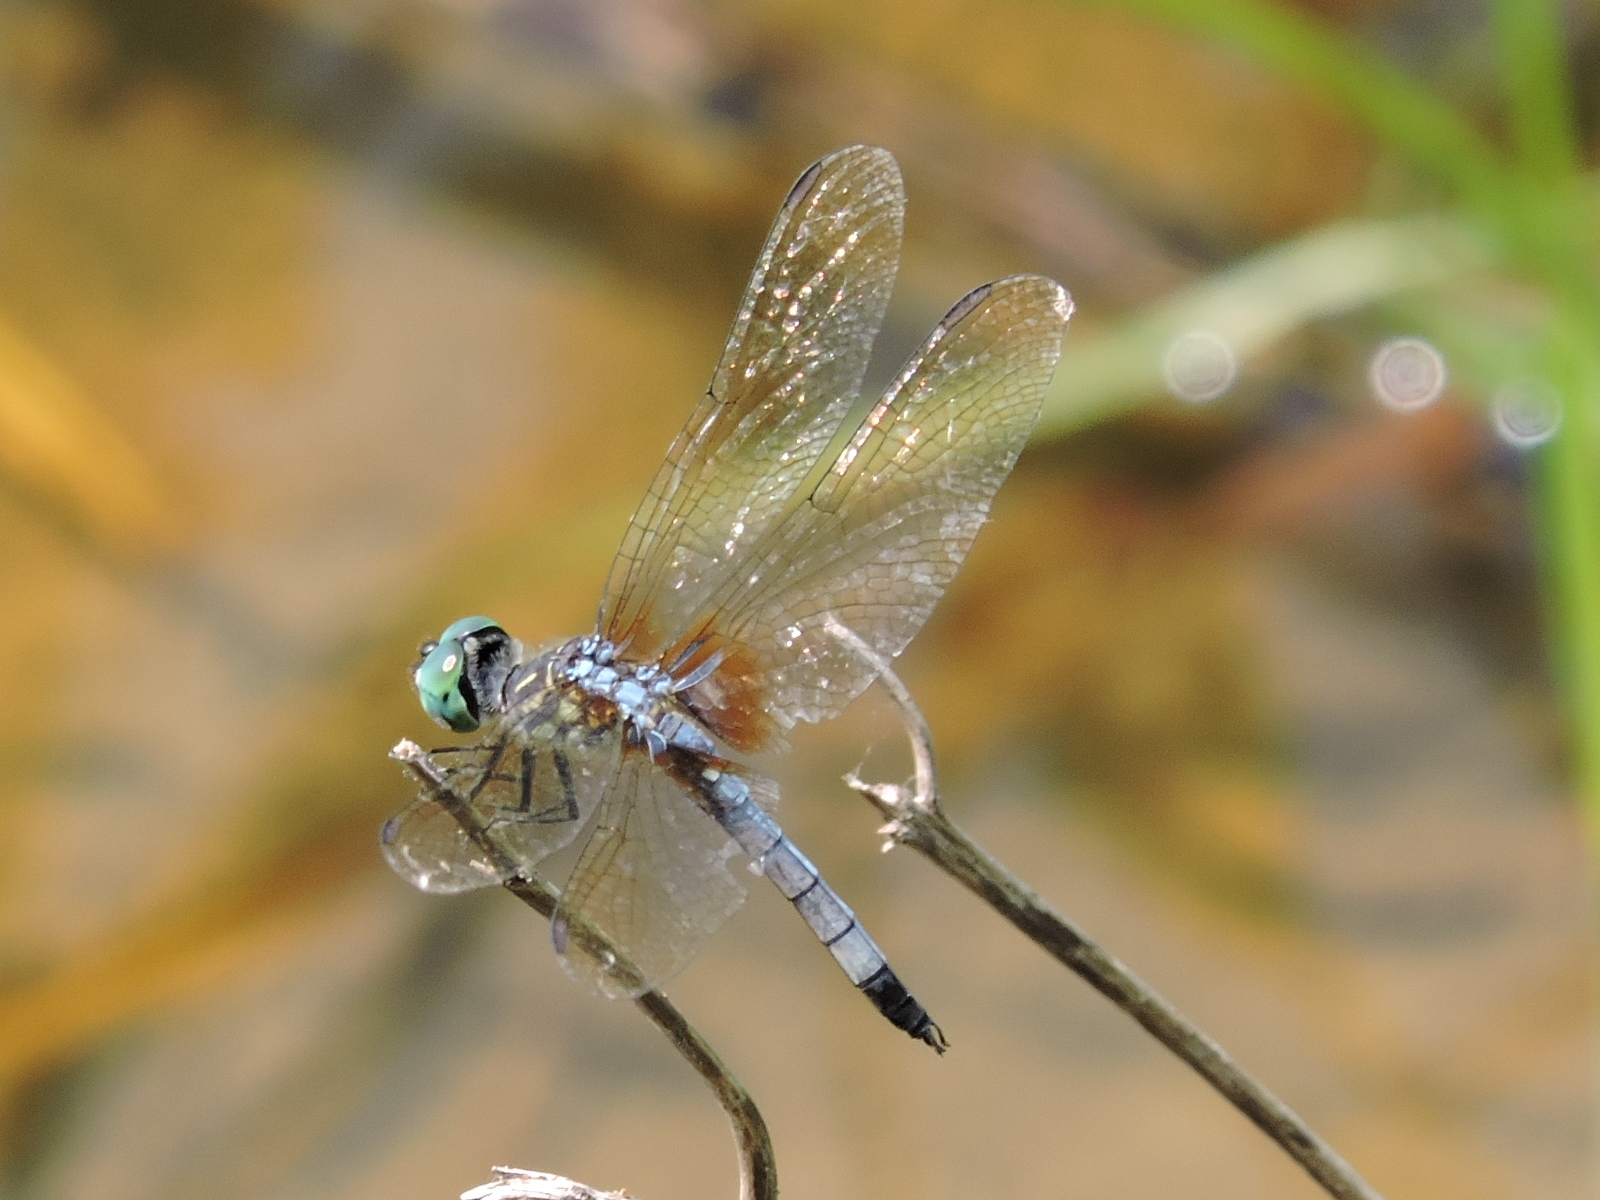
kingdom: Animalia
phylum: Arthropoda
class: Insecta
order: Odonata
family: Libellulidae
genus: Pachydiplax
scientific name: Pachydiplax longipennis
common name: Blue dasher
